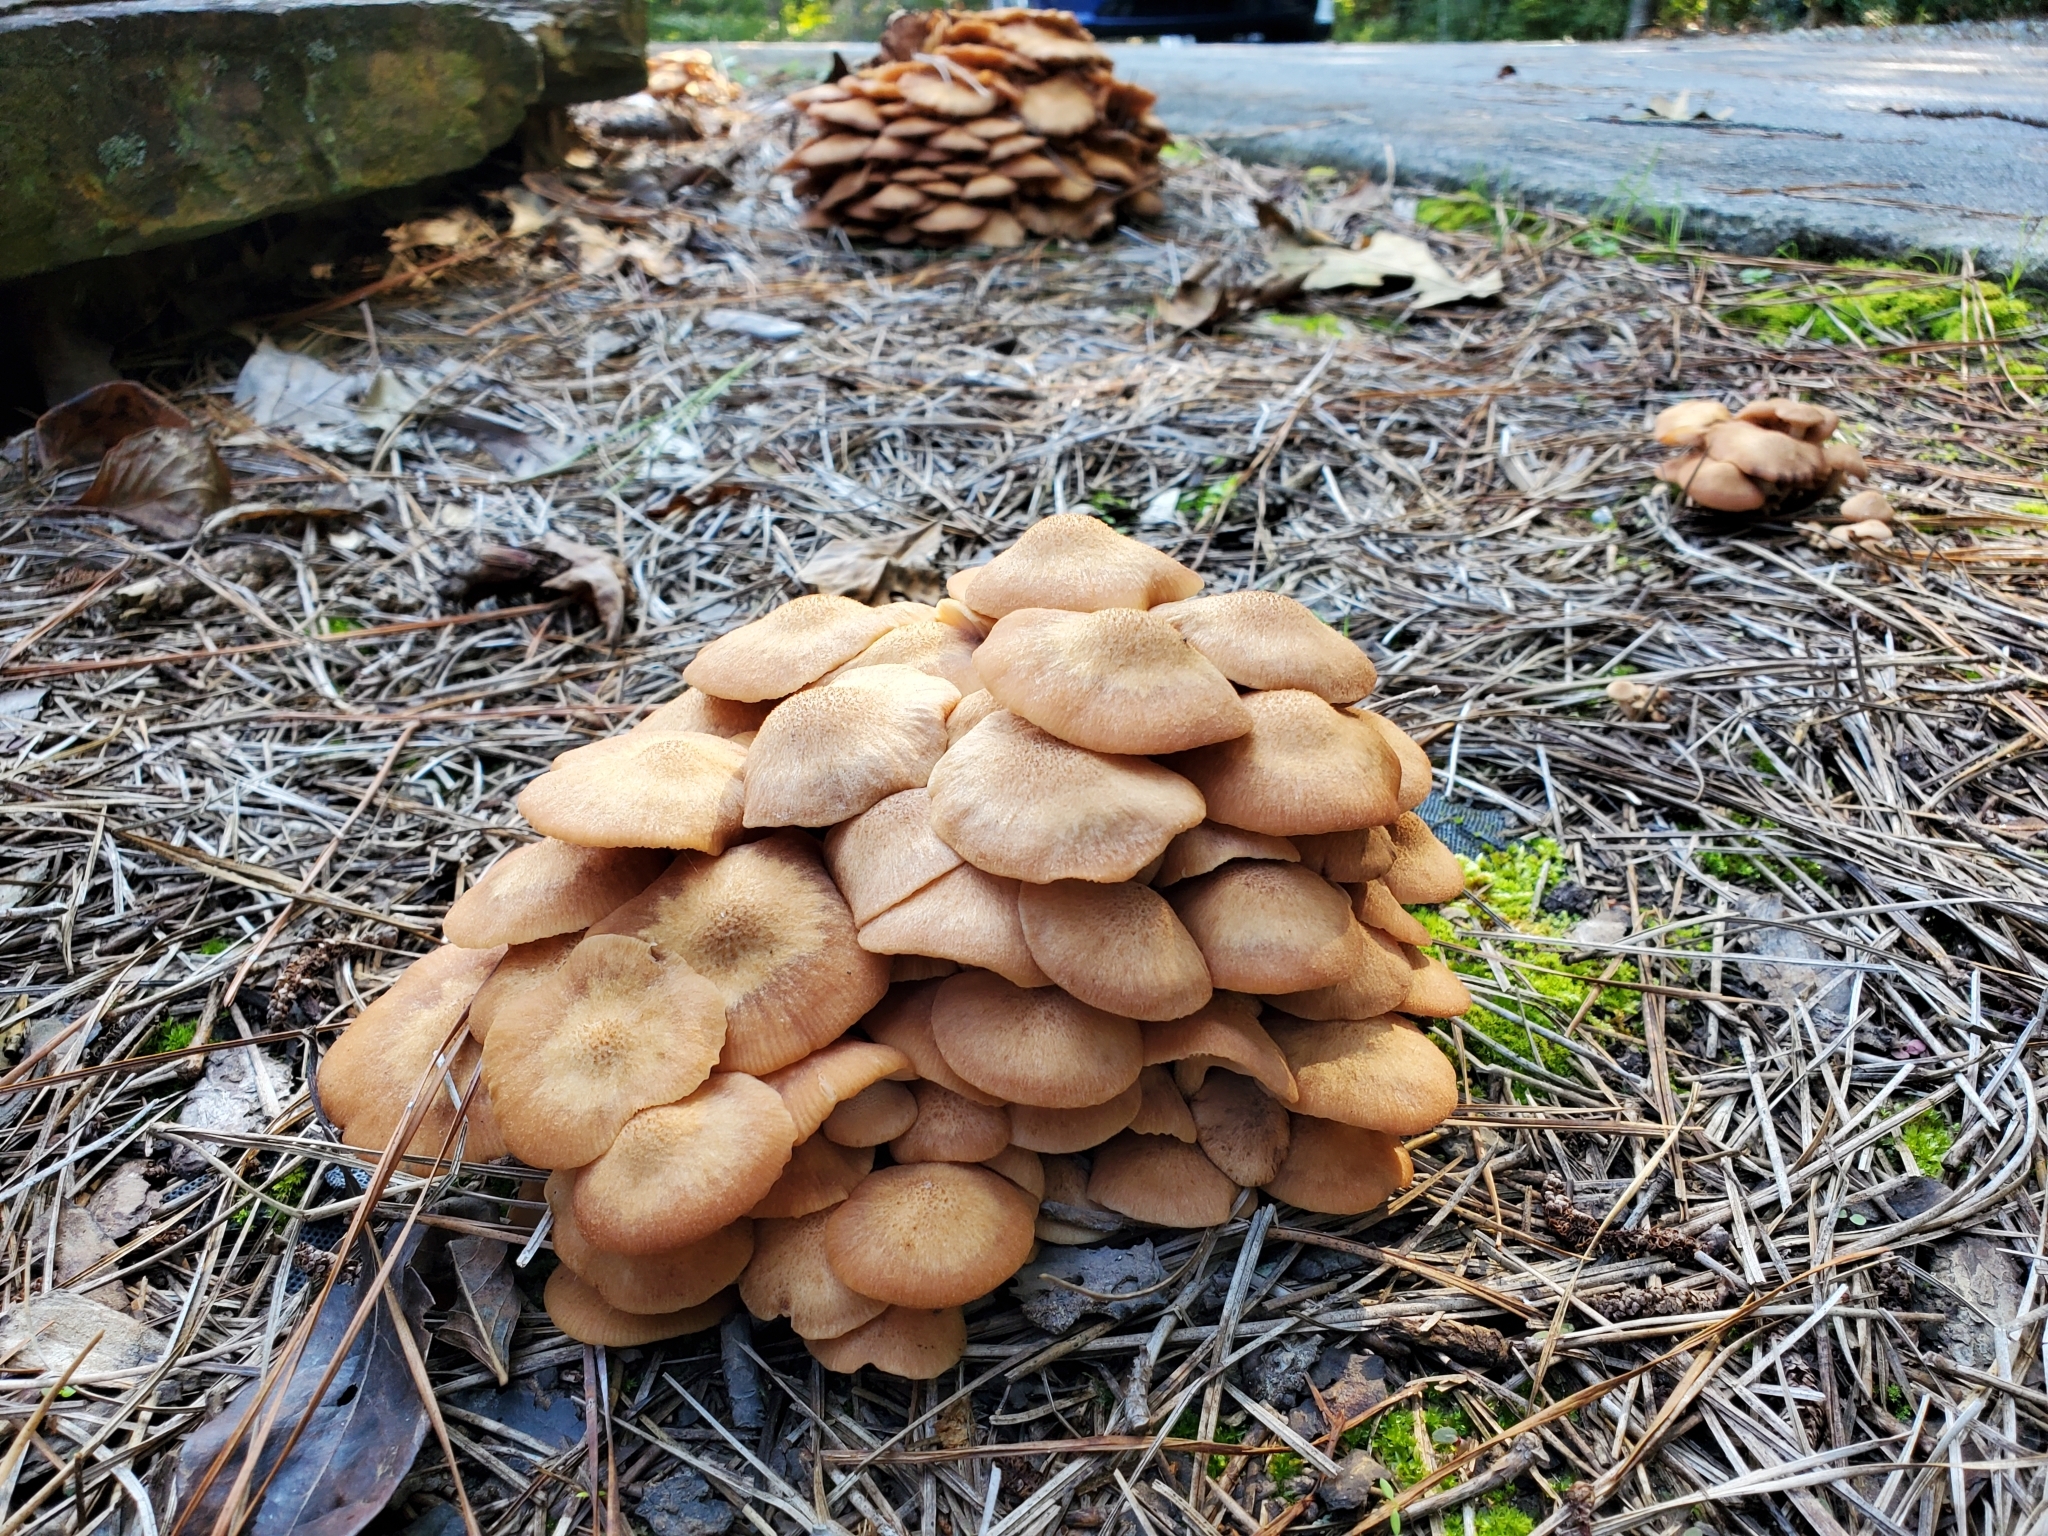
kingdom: Fungi
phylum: Basidiomycota
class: Agaricomycetes
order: Agaricales
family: Physalacriaceae
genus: Desarmillaria
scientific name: Desarmillaria caespitosa
